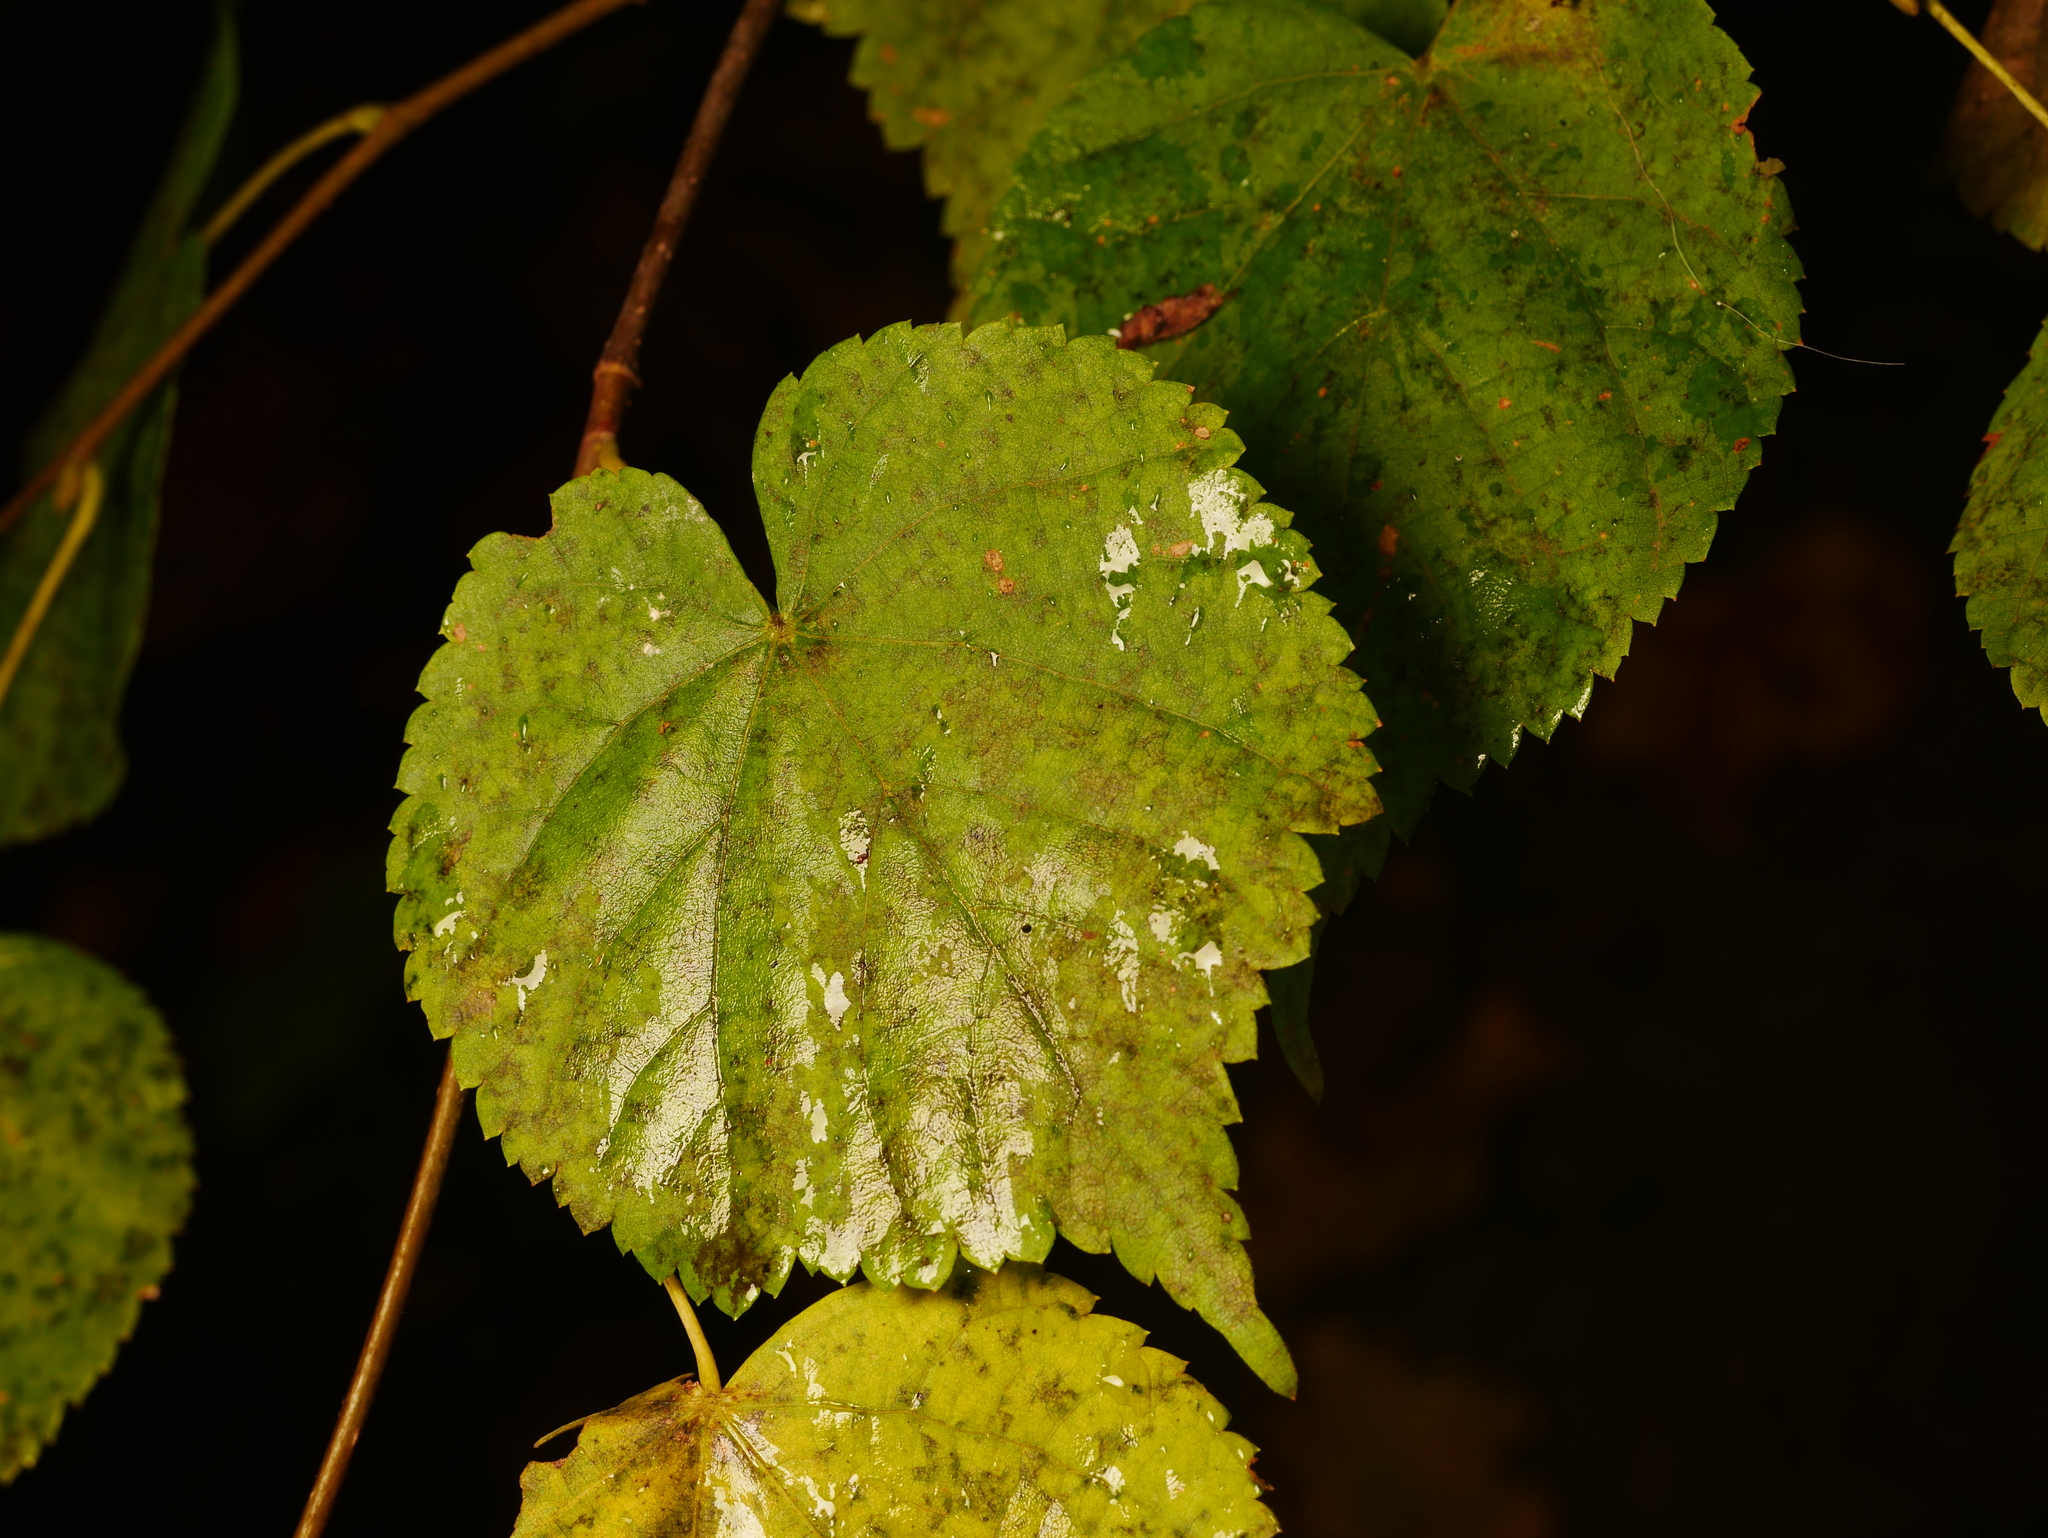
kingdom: Plantae
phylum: Tracheophyta
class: Magnoliopsida
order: Malvales
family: Malvaceae
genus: Tilia
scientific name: Tilia cordata
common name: Small-leaved lime
